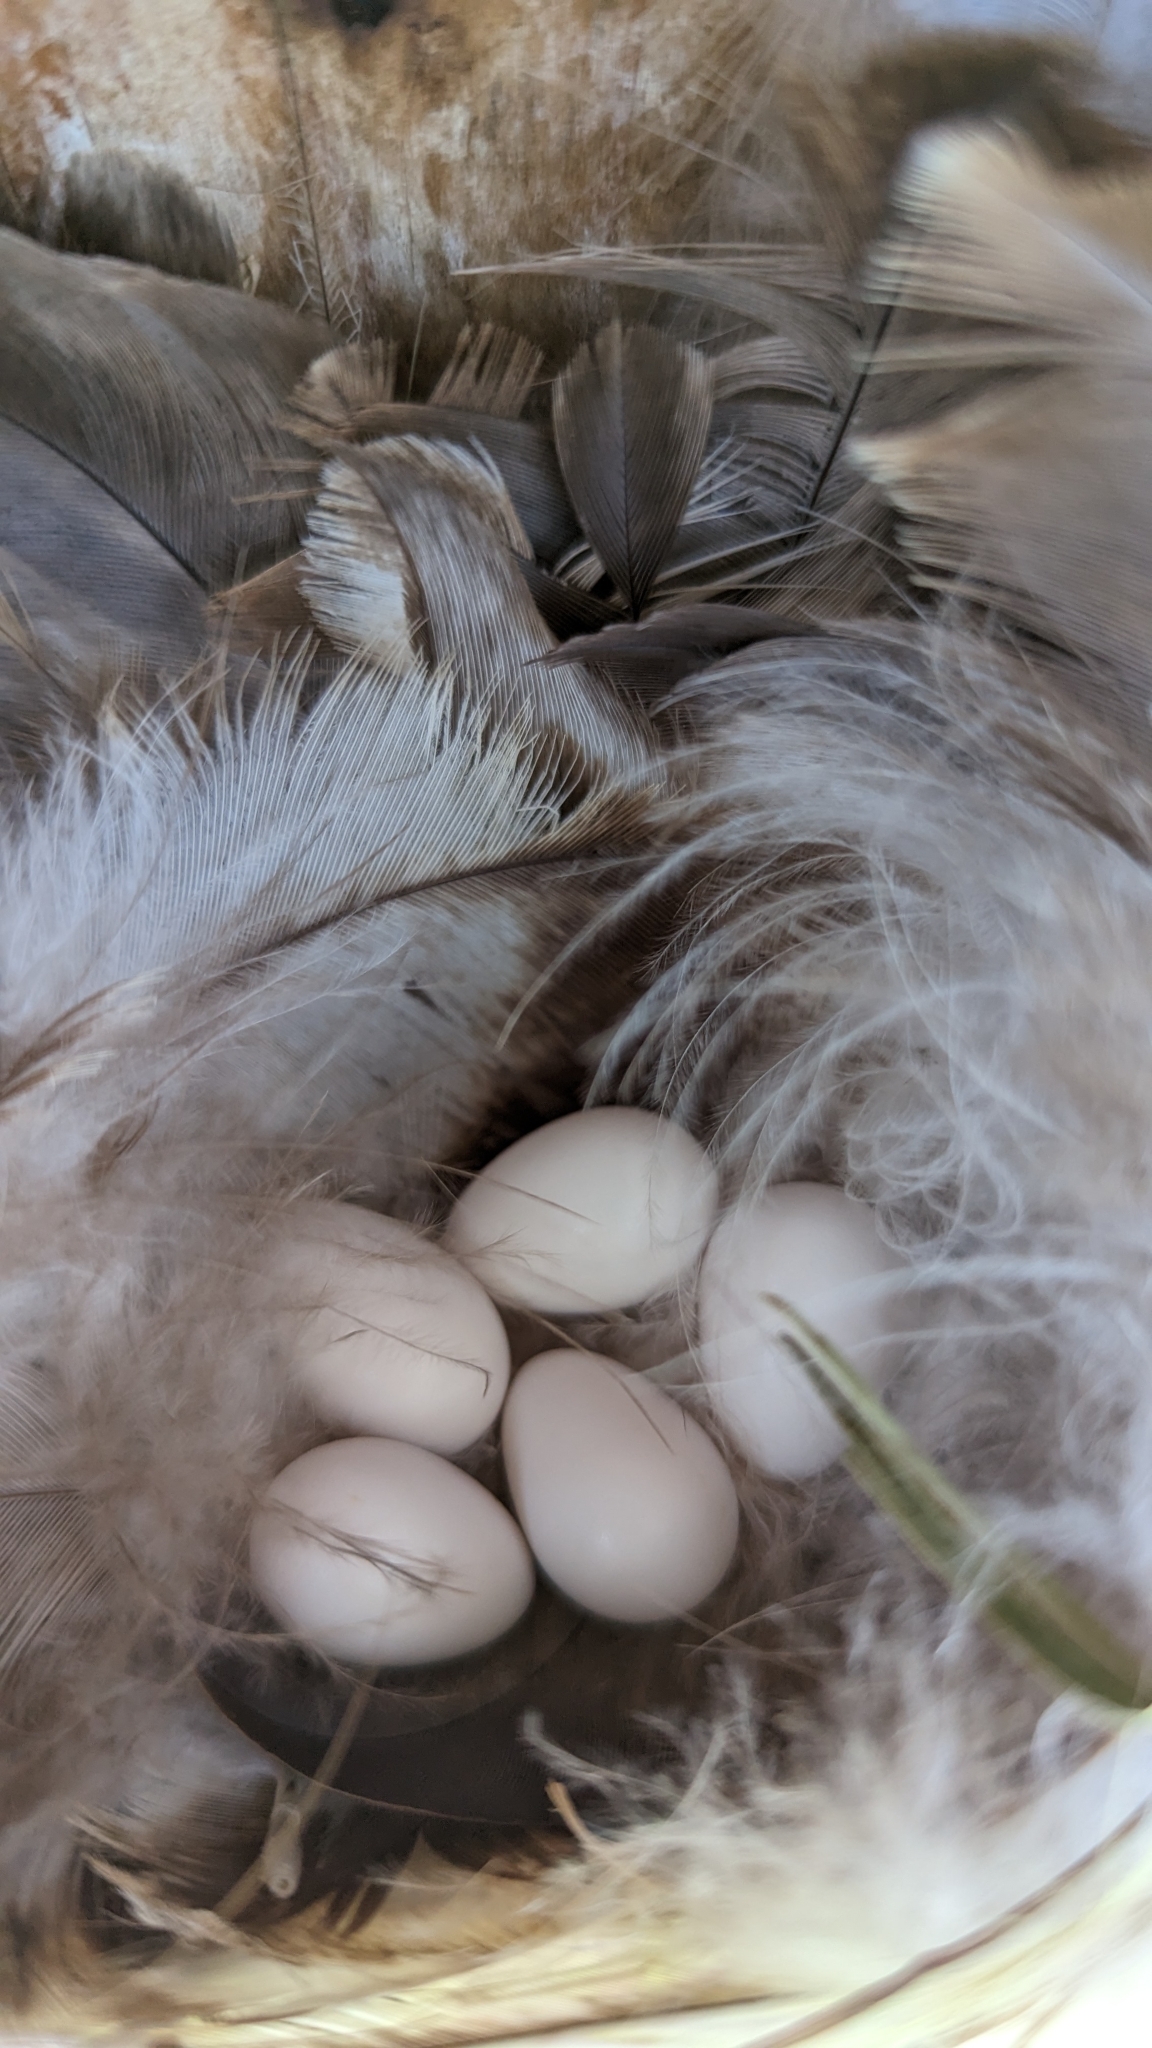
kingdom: Animalia
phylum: Chordata
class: Aves
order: Passeriformes
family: Hirundinidae
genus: Tachycineta
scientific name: Tachycineta bicolor
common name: Tree swallow
